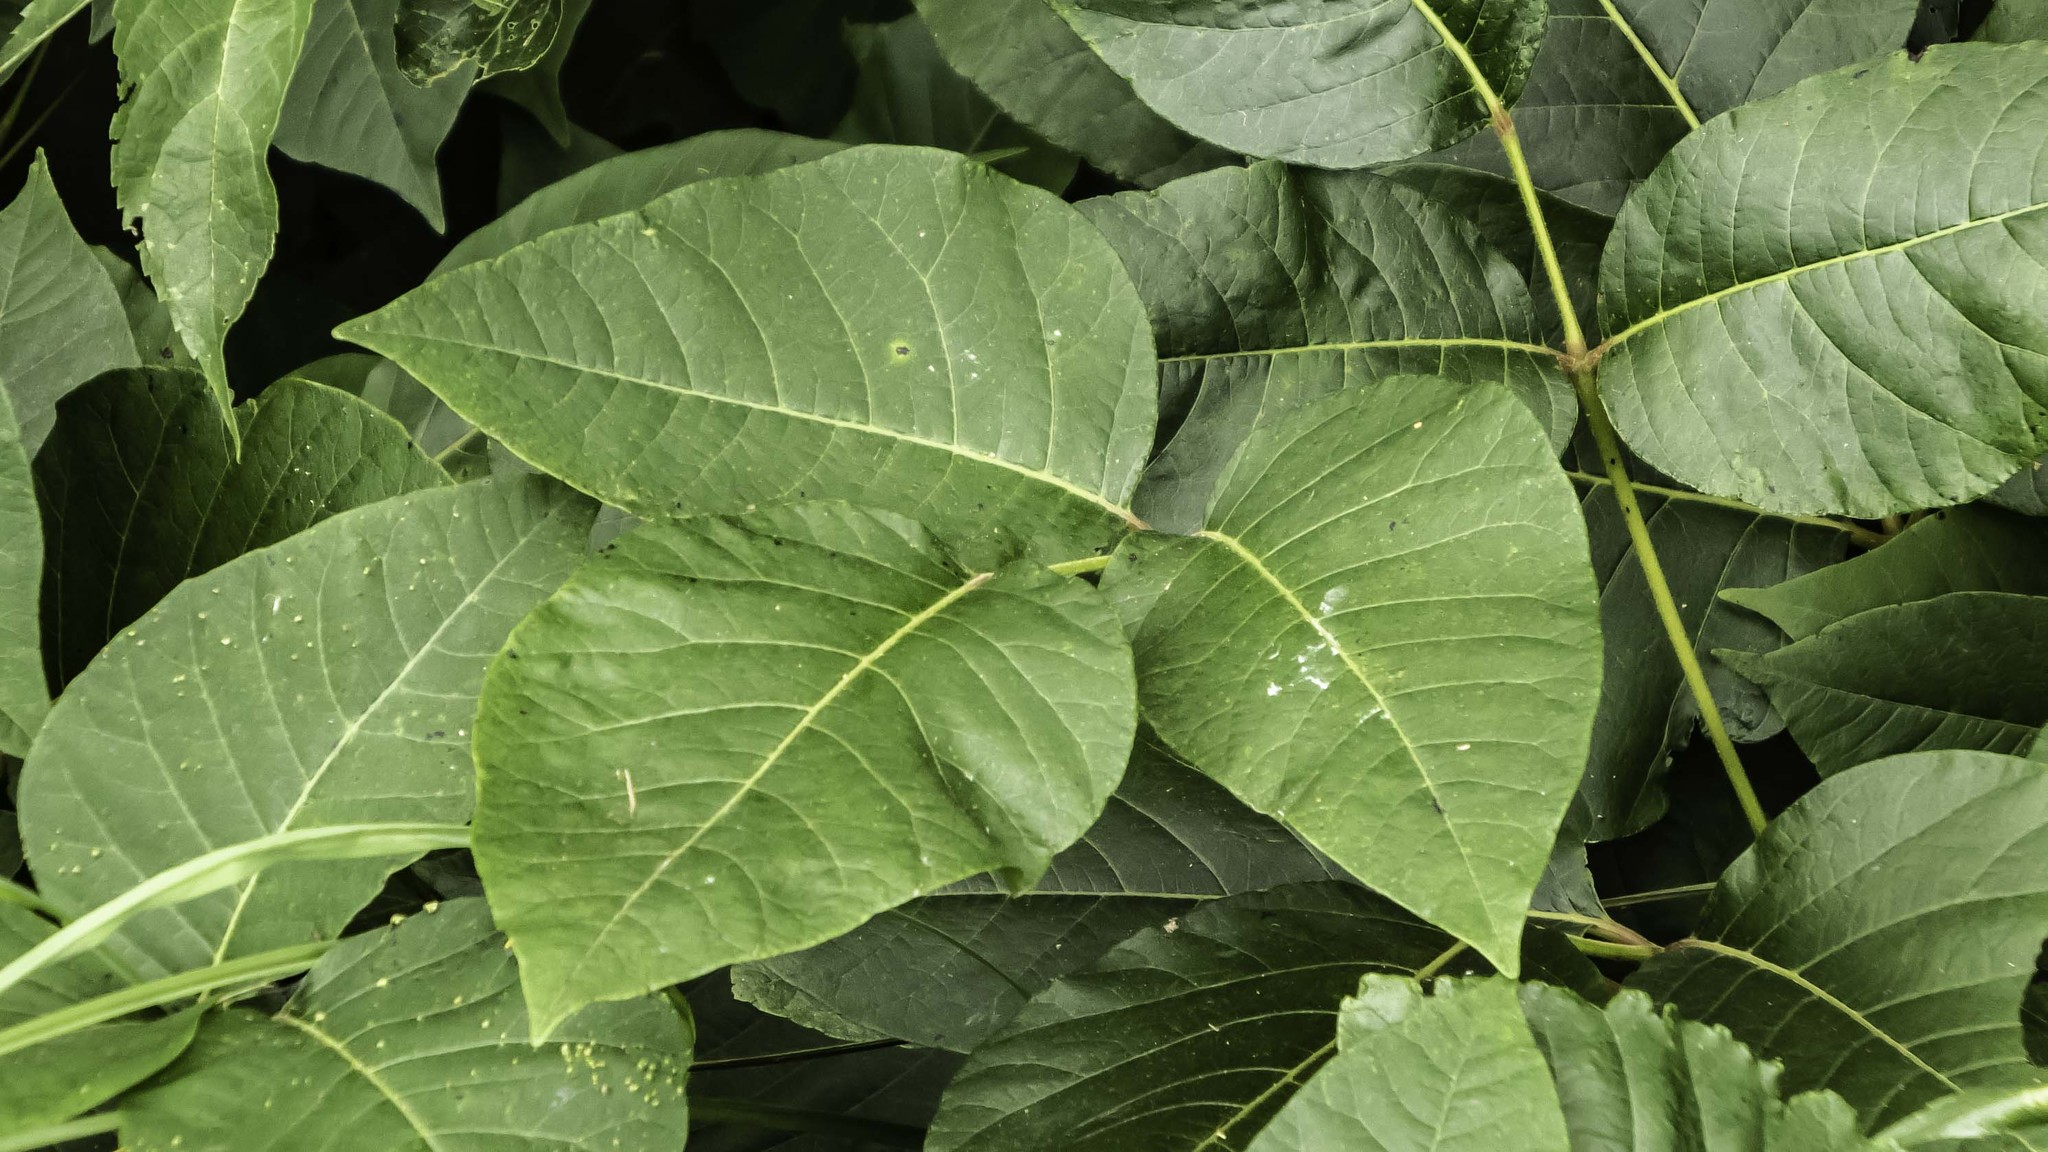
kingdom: Plantae
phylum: Tracheophyta
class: Magnoliopsida
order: Sapindales
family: Anacardiaceae
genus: Toxicodendron
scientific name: Toxicodendron radicans
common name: Poison ivy
